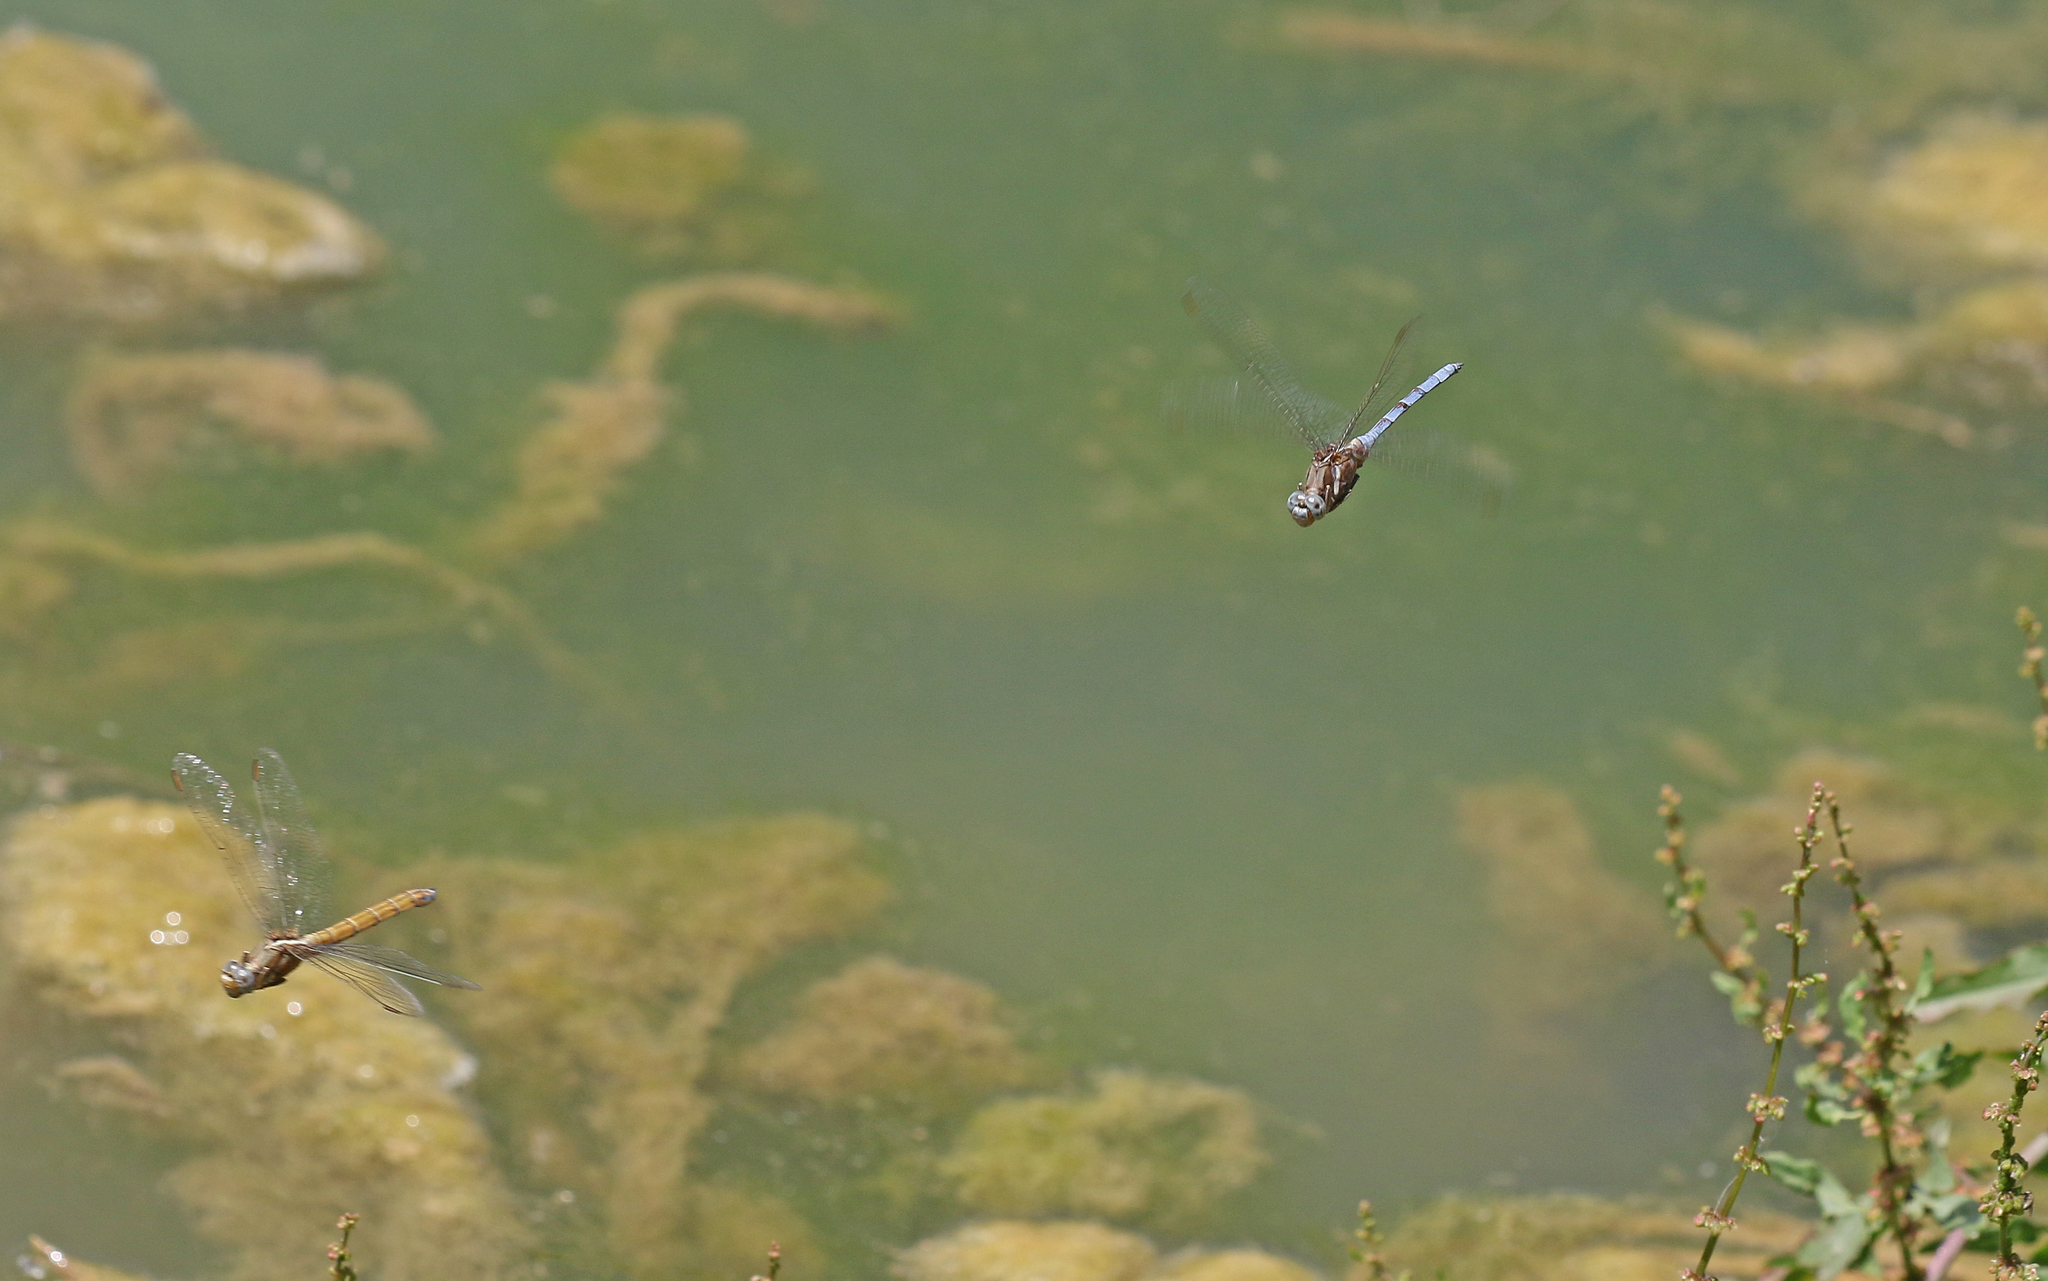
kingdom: Animalia
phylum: Arthropoda
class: Insecta
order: Odonata
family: Libellulidae
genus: Orthetrum
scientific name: Orthetrum chrysostigma
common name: Epaulet skimmer
